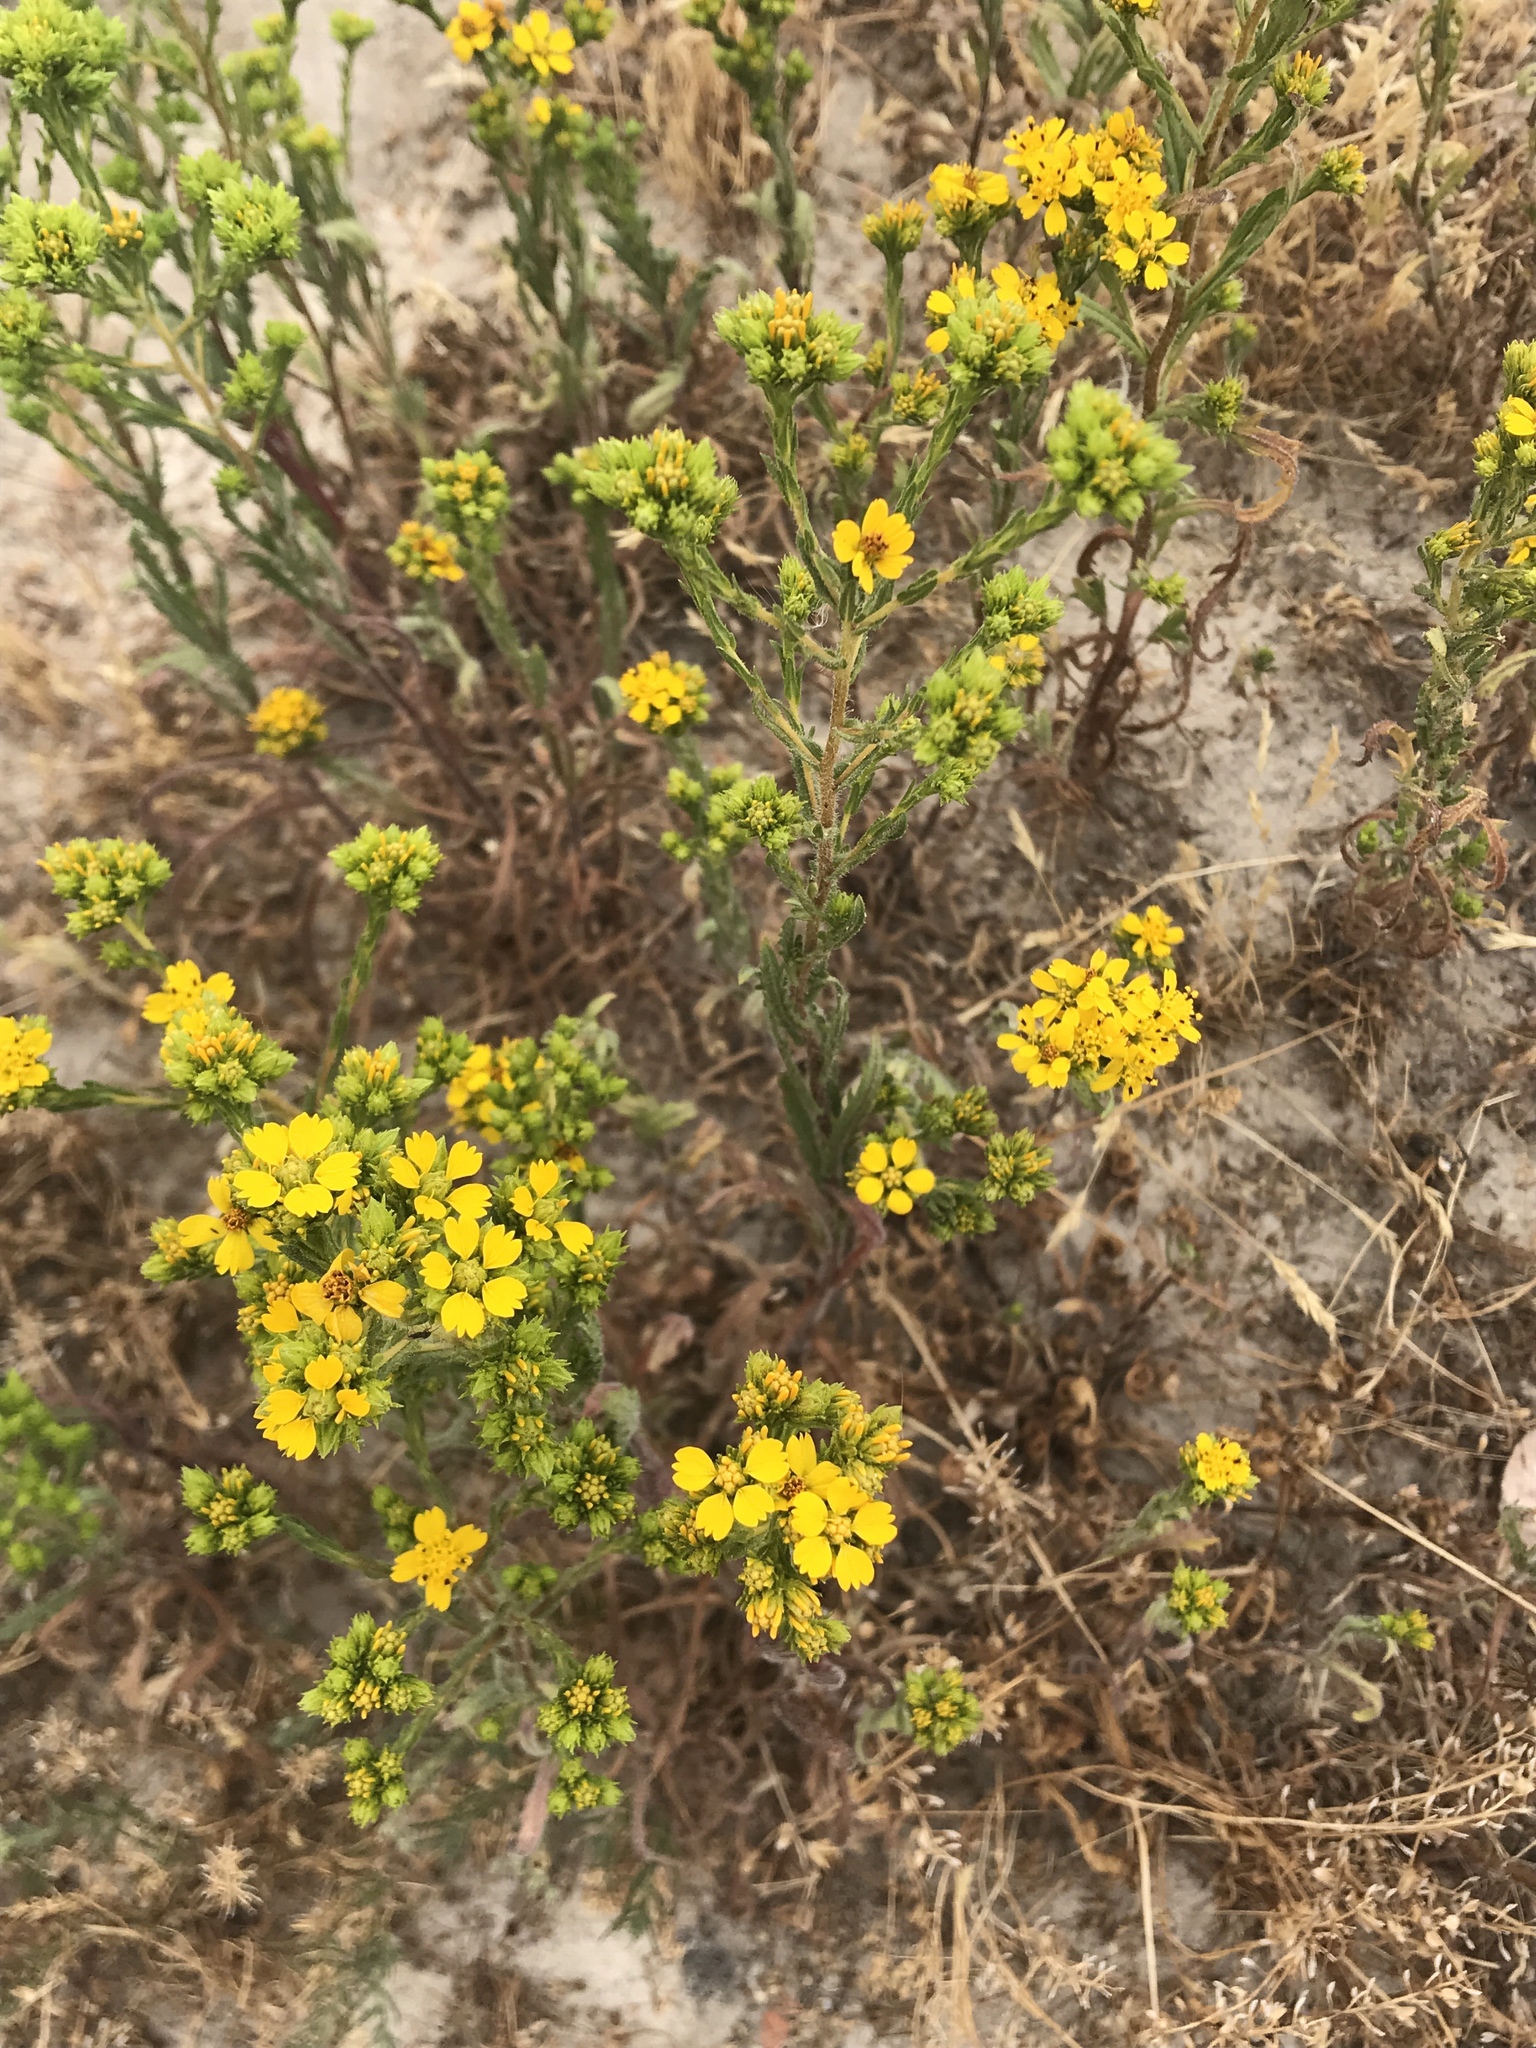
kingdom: Plantae
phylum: Tracheophyta
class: Magnoliopsida
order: Asterales
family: Asteraceae
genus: Deinandra
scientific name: Deinandra fasciculata
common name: Clustered tarweed
